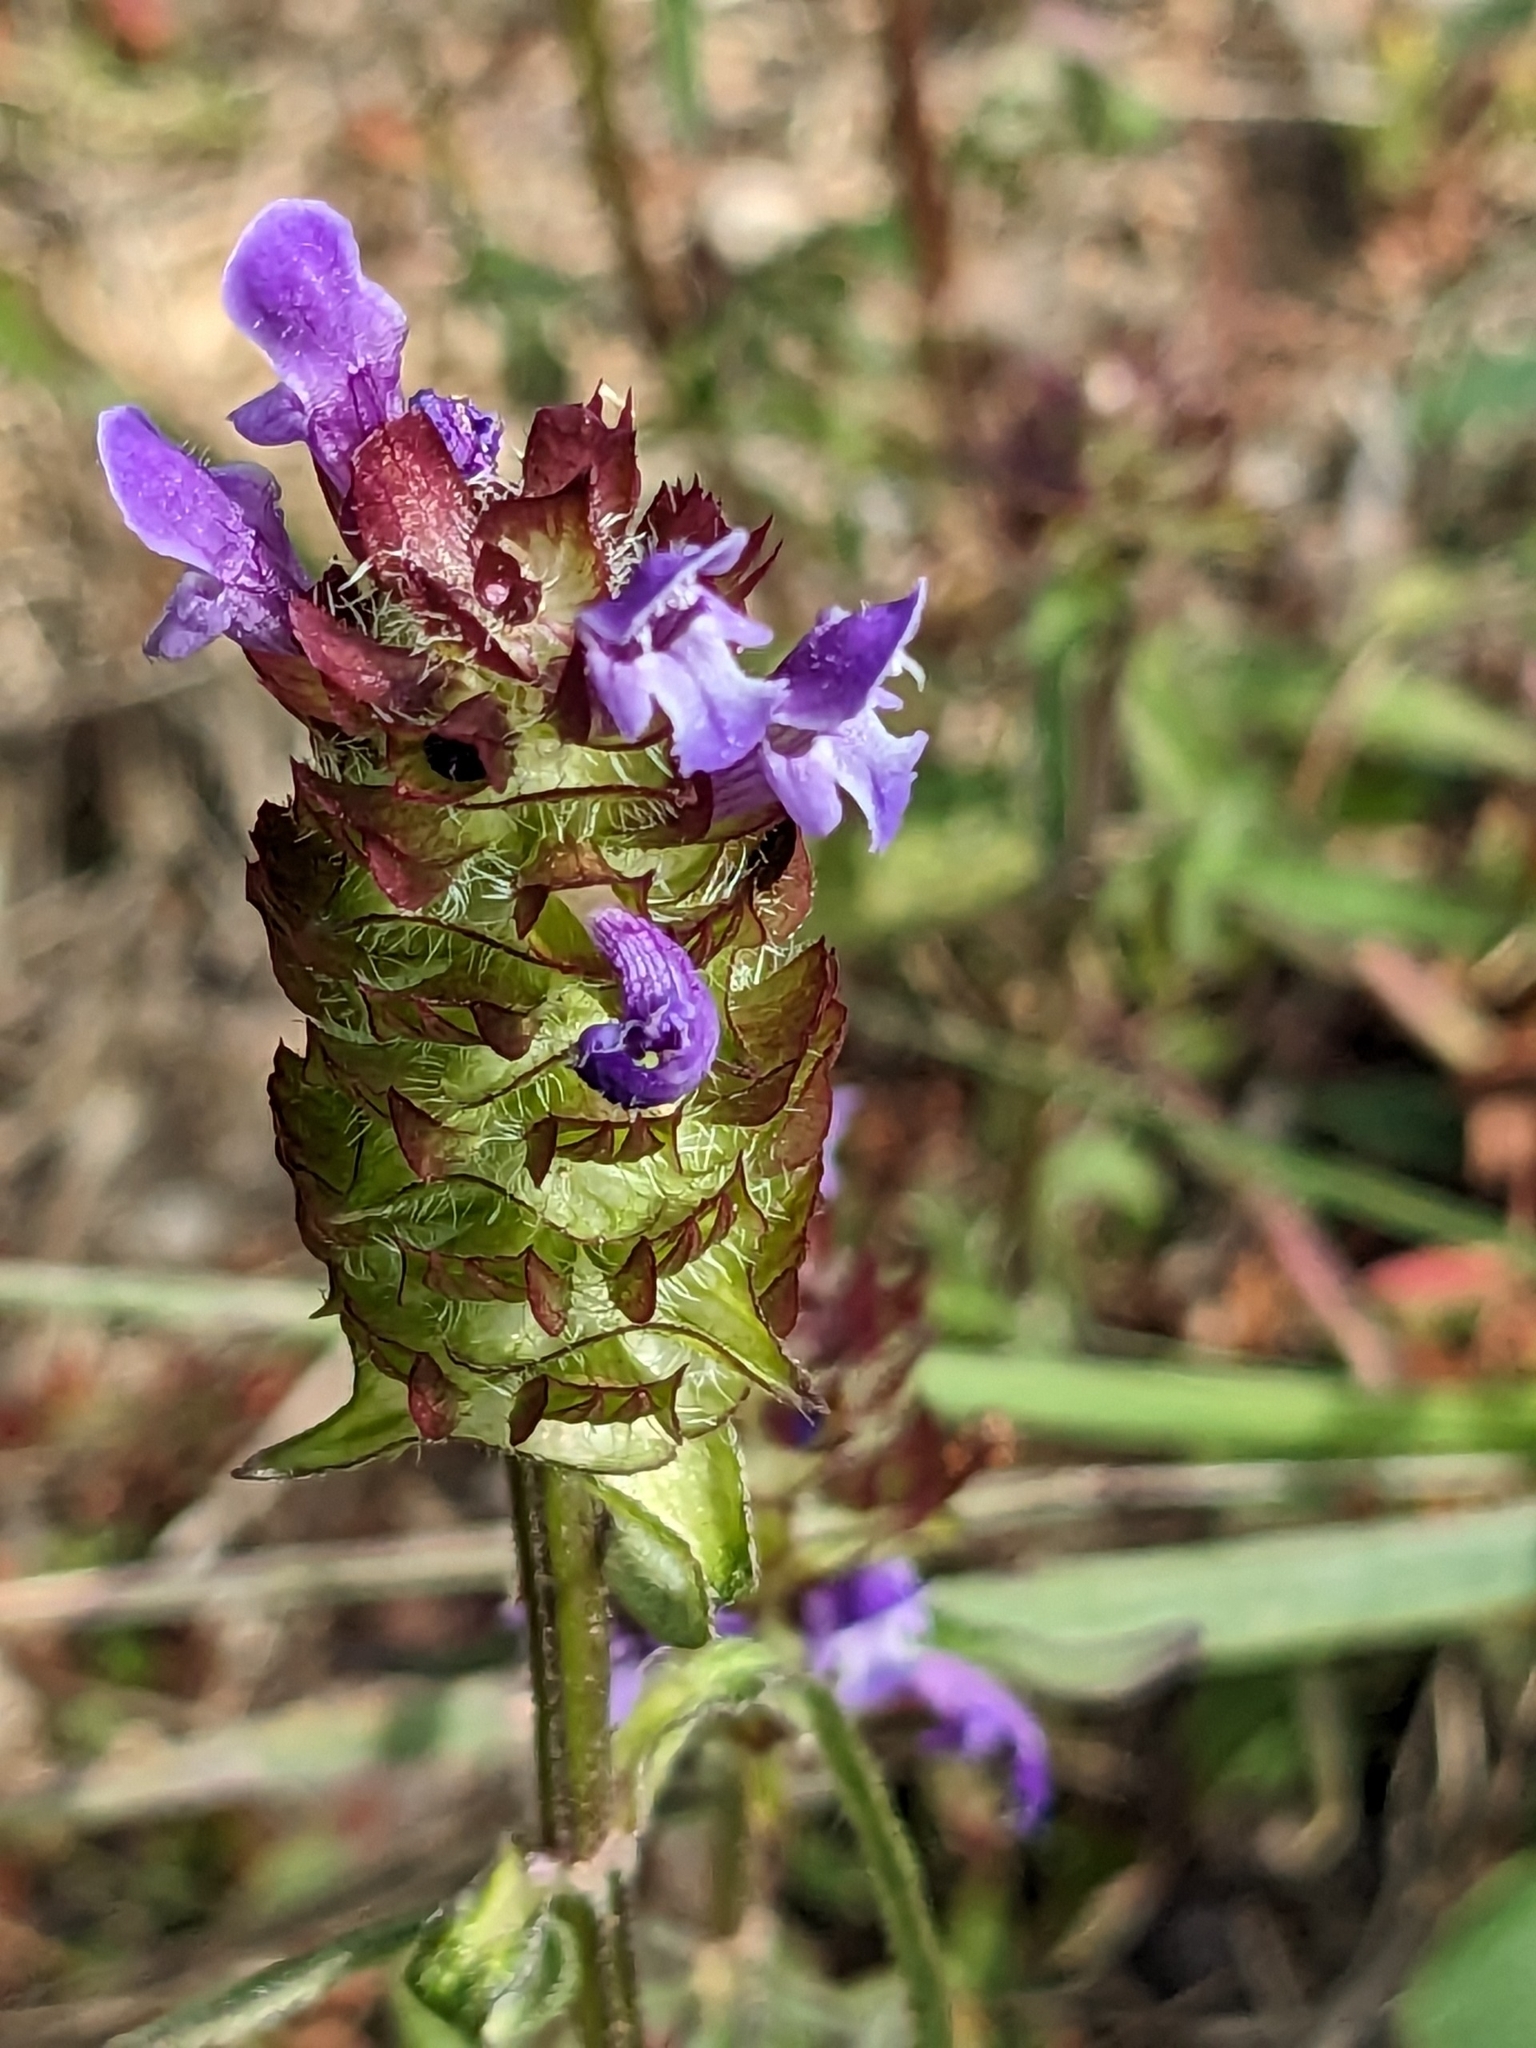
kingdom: Plantae
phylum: Tracheophyta
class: Magnoliopsida
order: Lamiales
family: Lamiaceae
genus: Prunella
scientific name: Prunella vulgaris
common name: Heal-all
